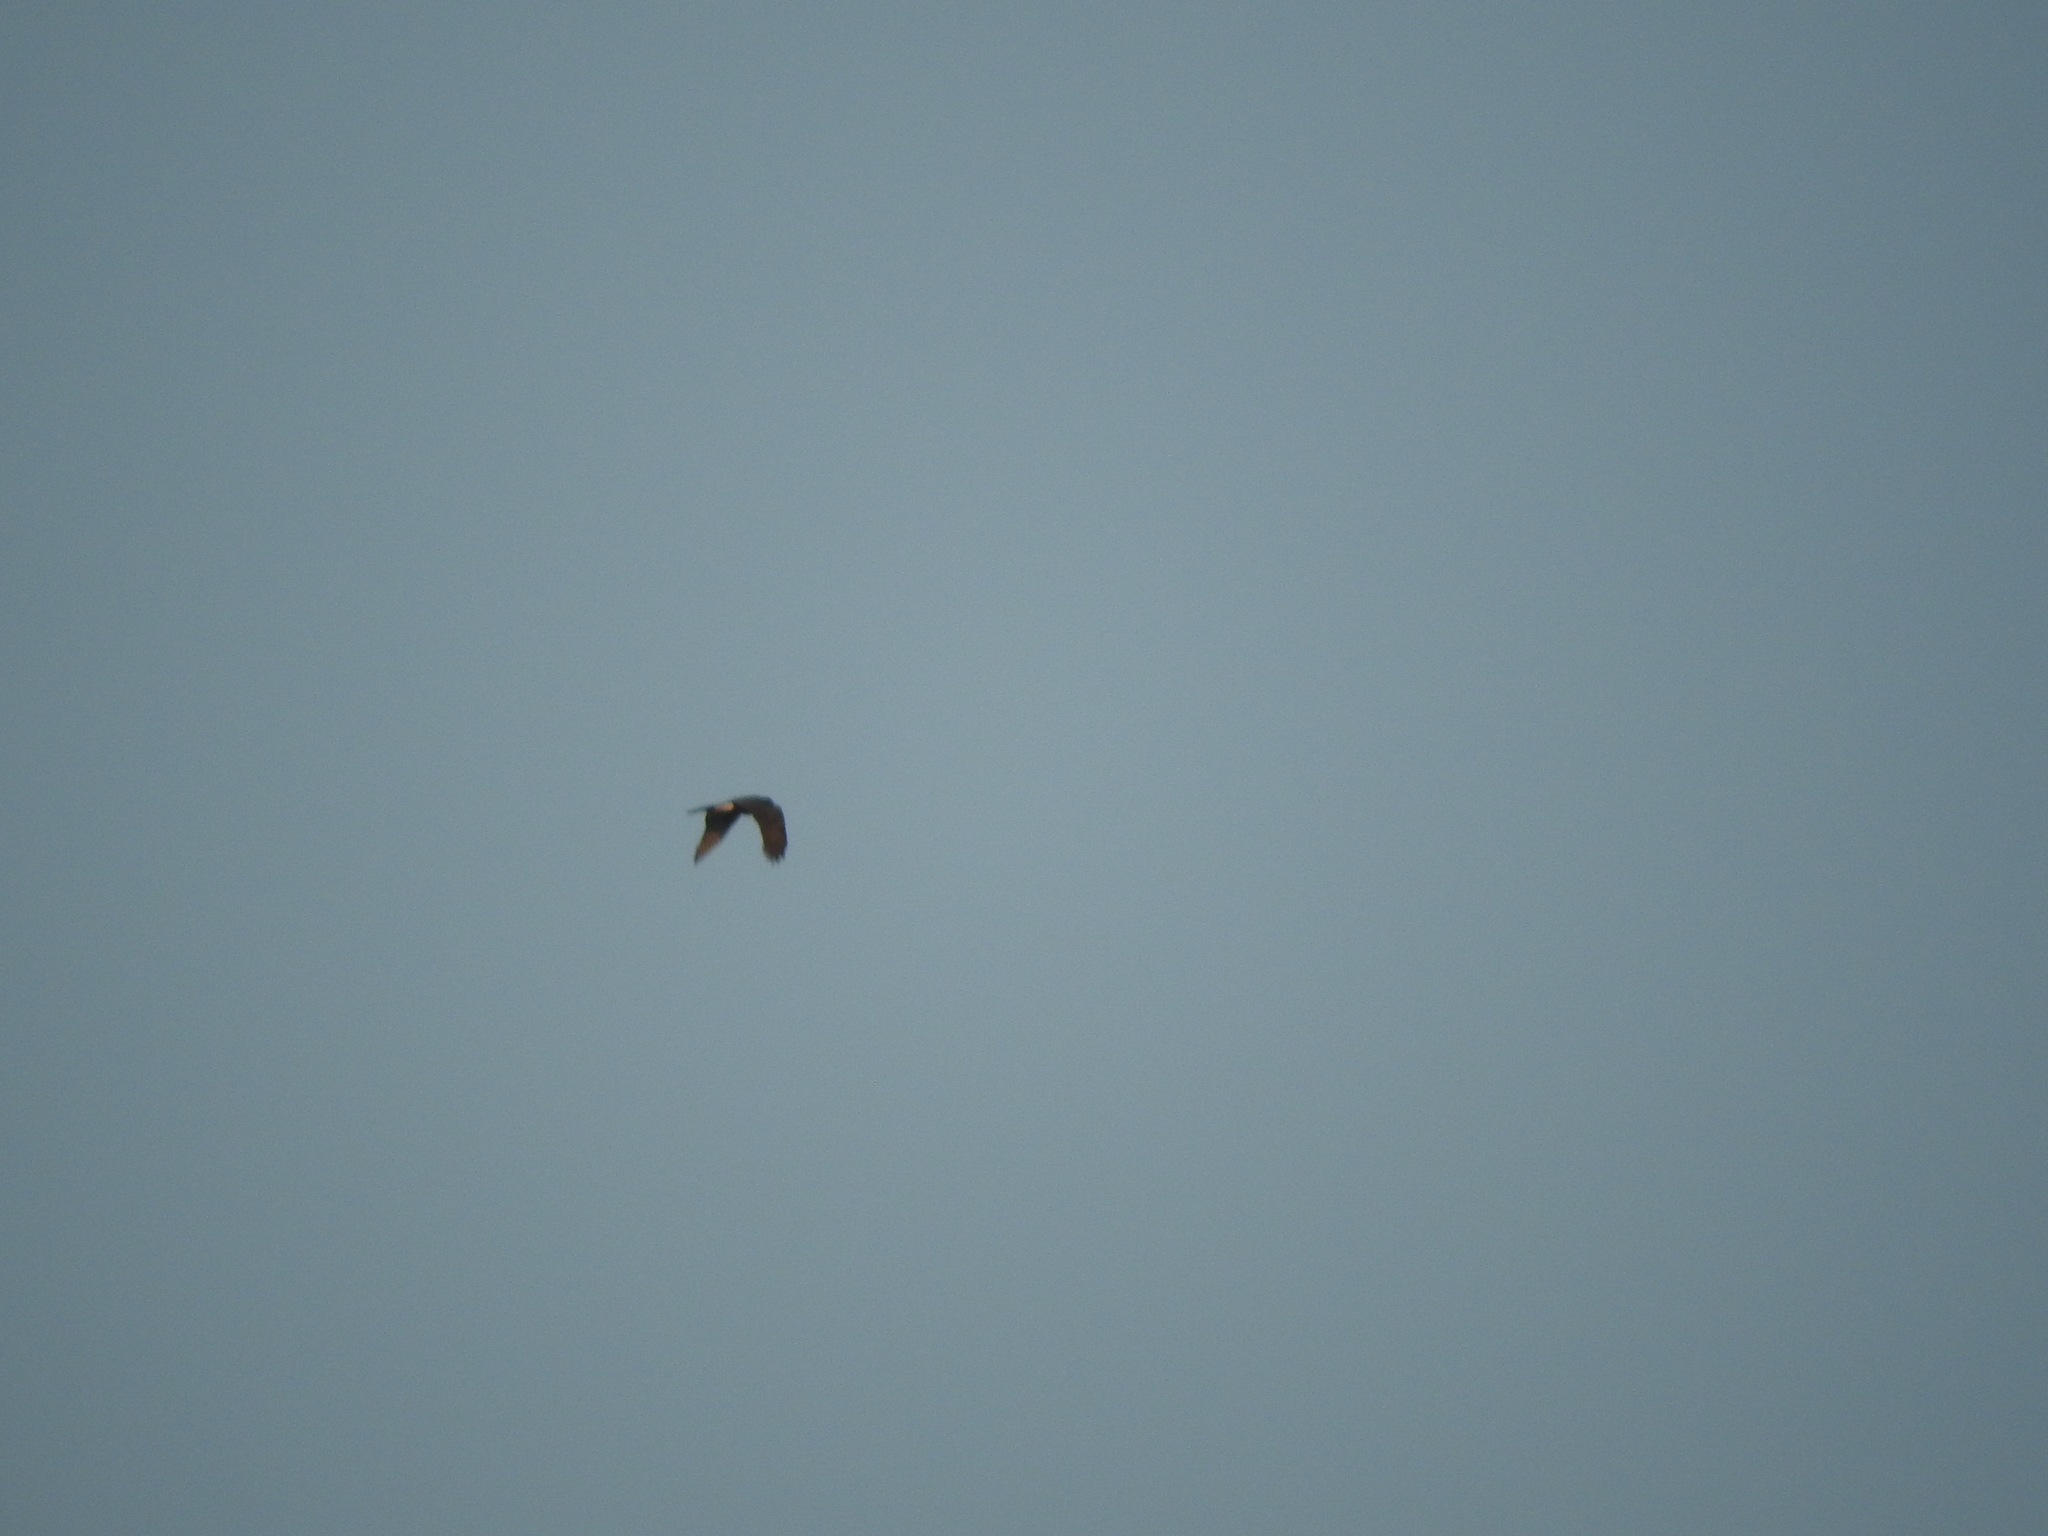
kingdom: Animalia
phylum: Chordata
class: Aves
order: Falconiformes
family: Falconidae
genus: Falco
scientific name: Falco peregrinus
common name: Peregrine falcon
